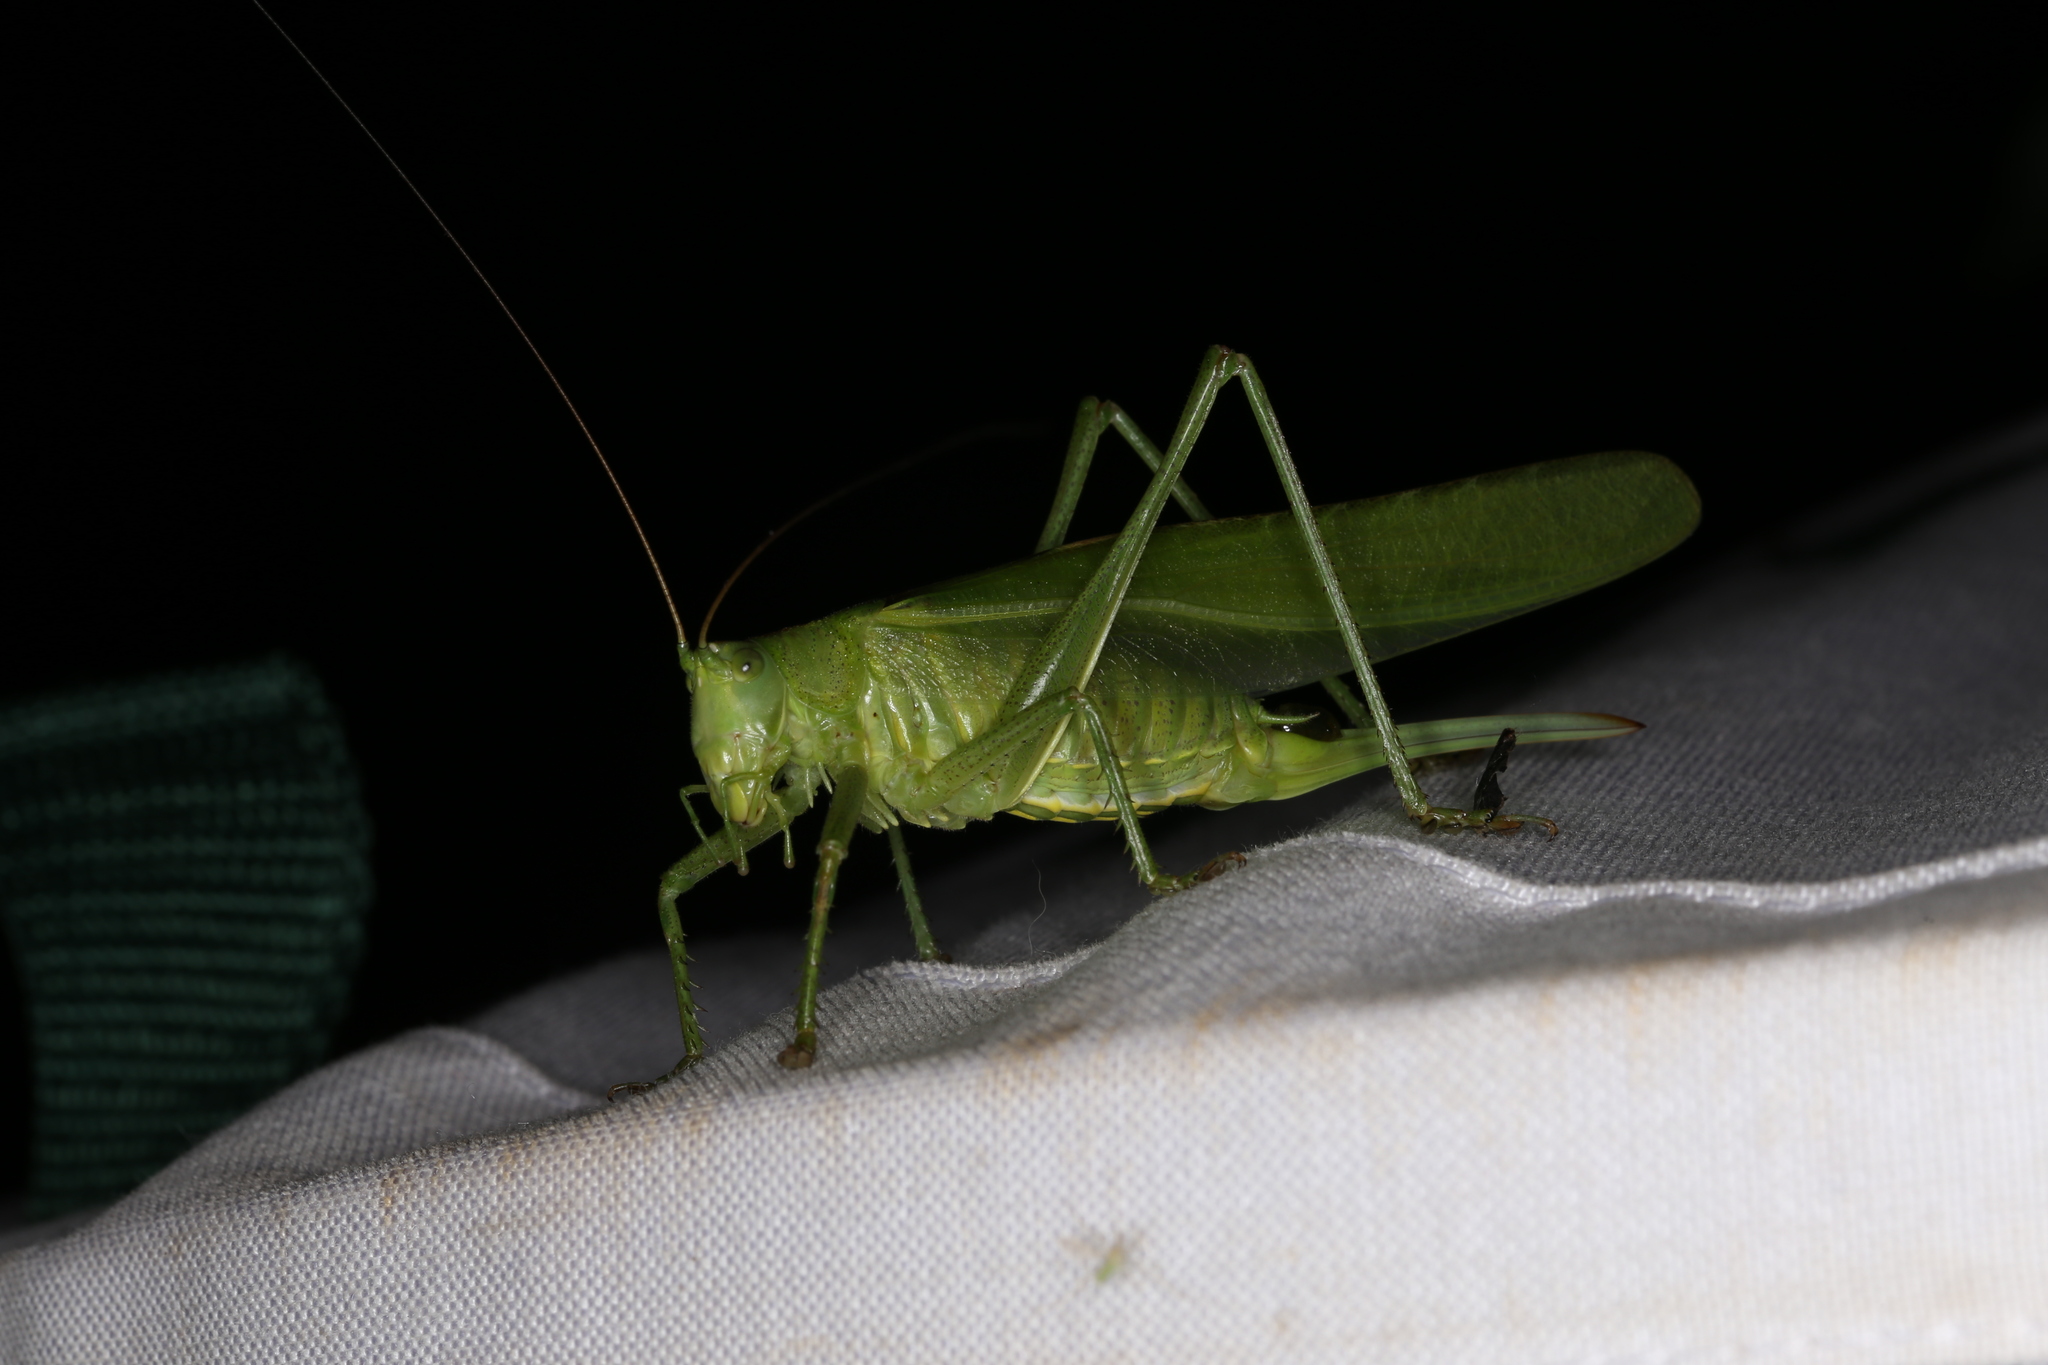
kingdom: Animalia
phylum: Arthropoda
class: Insecta
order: Orthoptera
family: Tettigoniidae
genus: Tettigonia
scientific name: Tettigonia viridissima
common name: Great green bush-cricket
